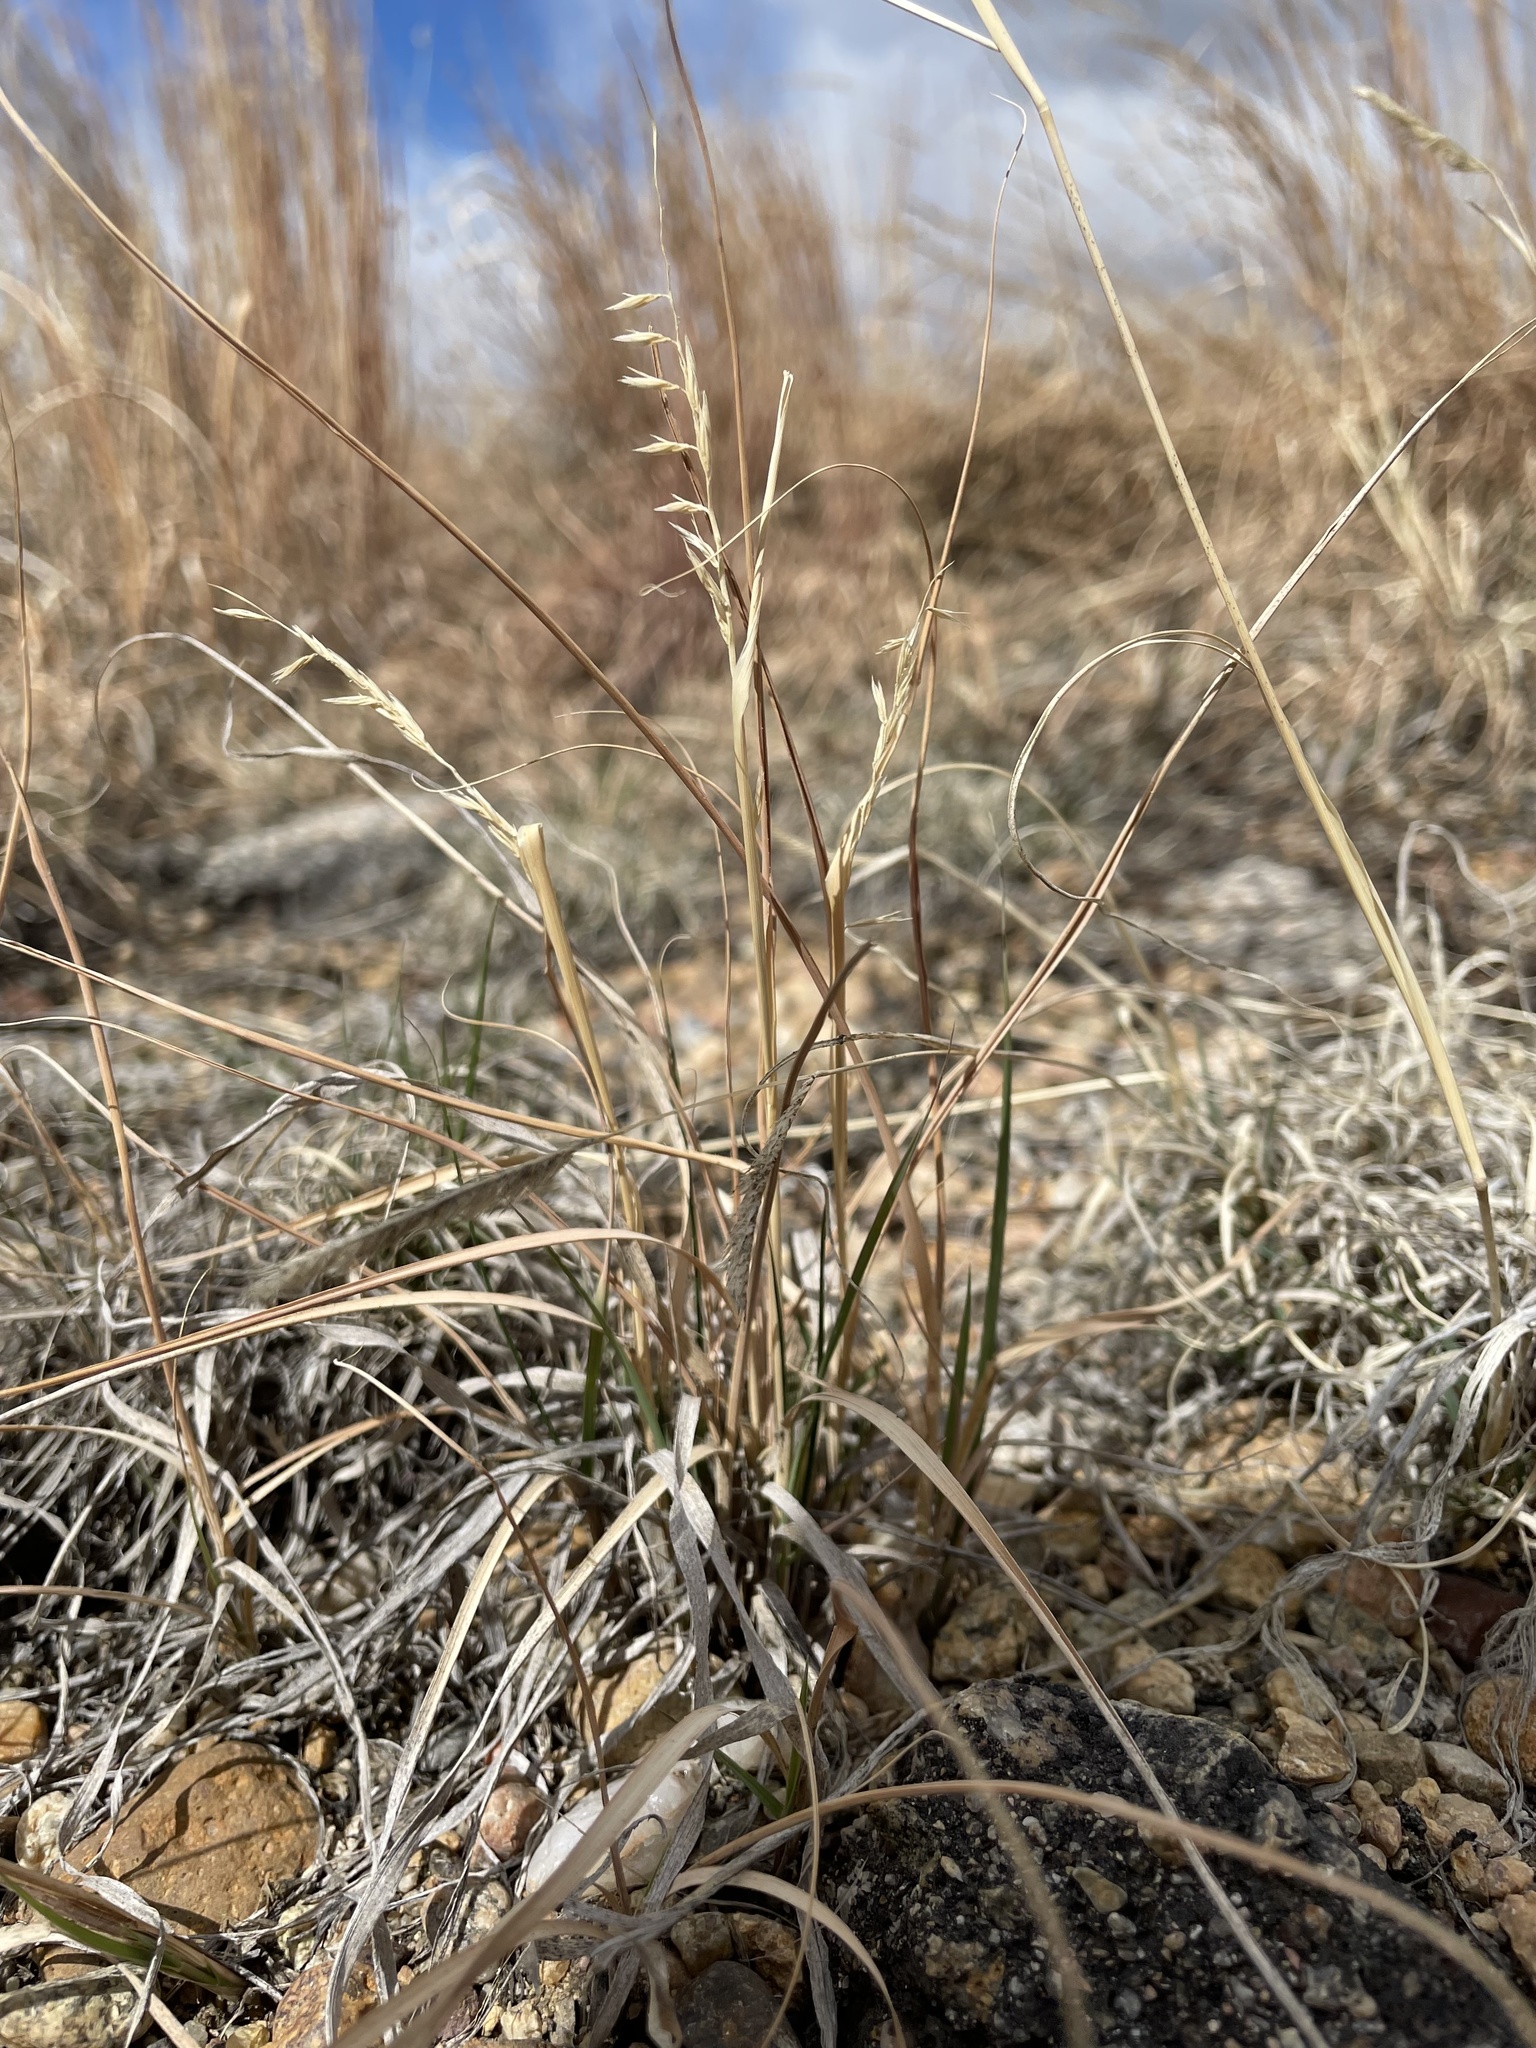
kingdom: Plantae
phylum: Tracheophyta
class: Liliopsida
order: Poales
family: Poaceae
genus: Bouteloua
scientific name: Bouteloua curtipendula
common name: Side-oats grama
